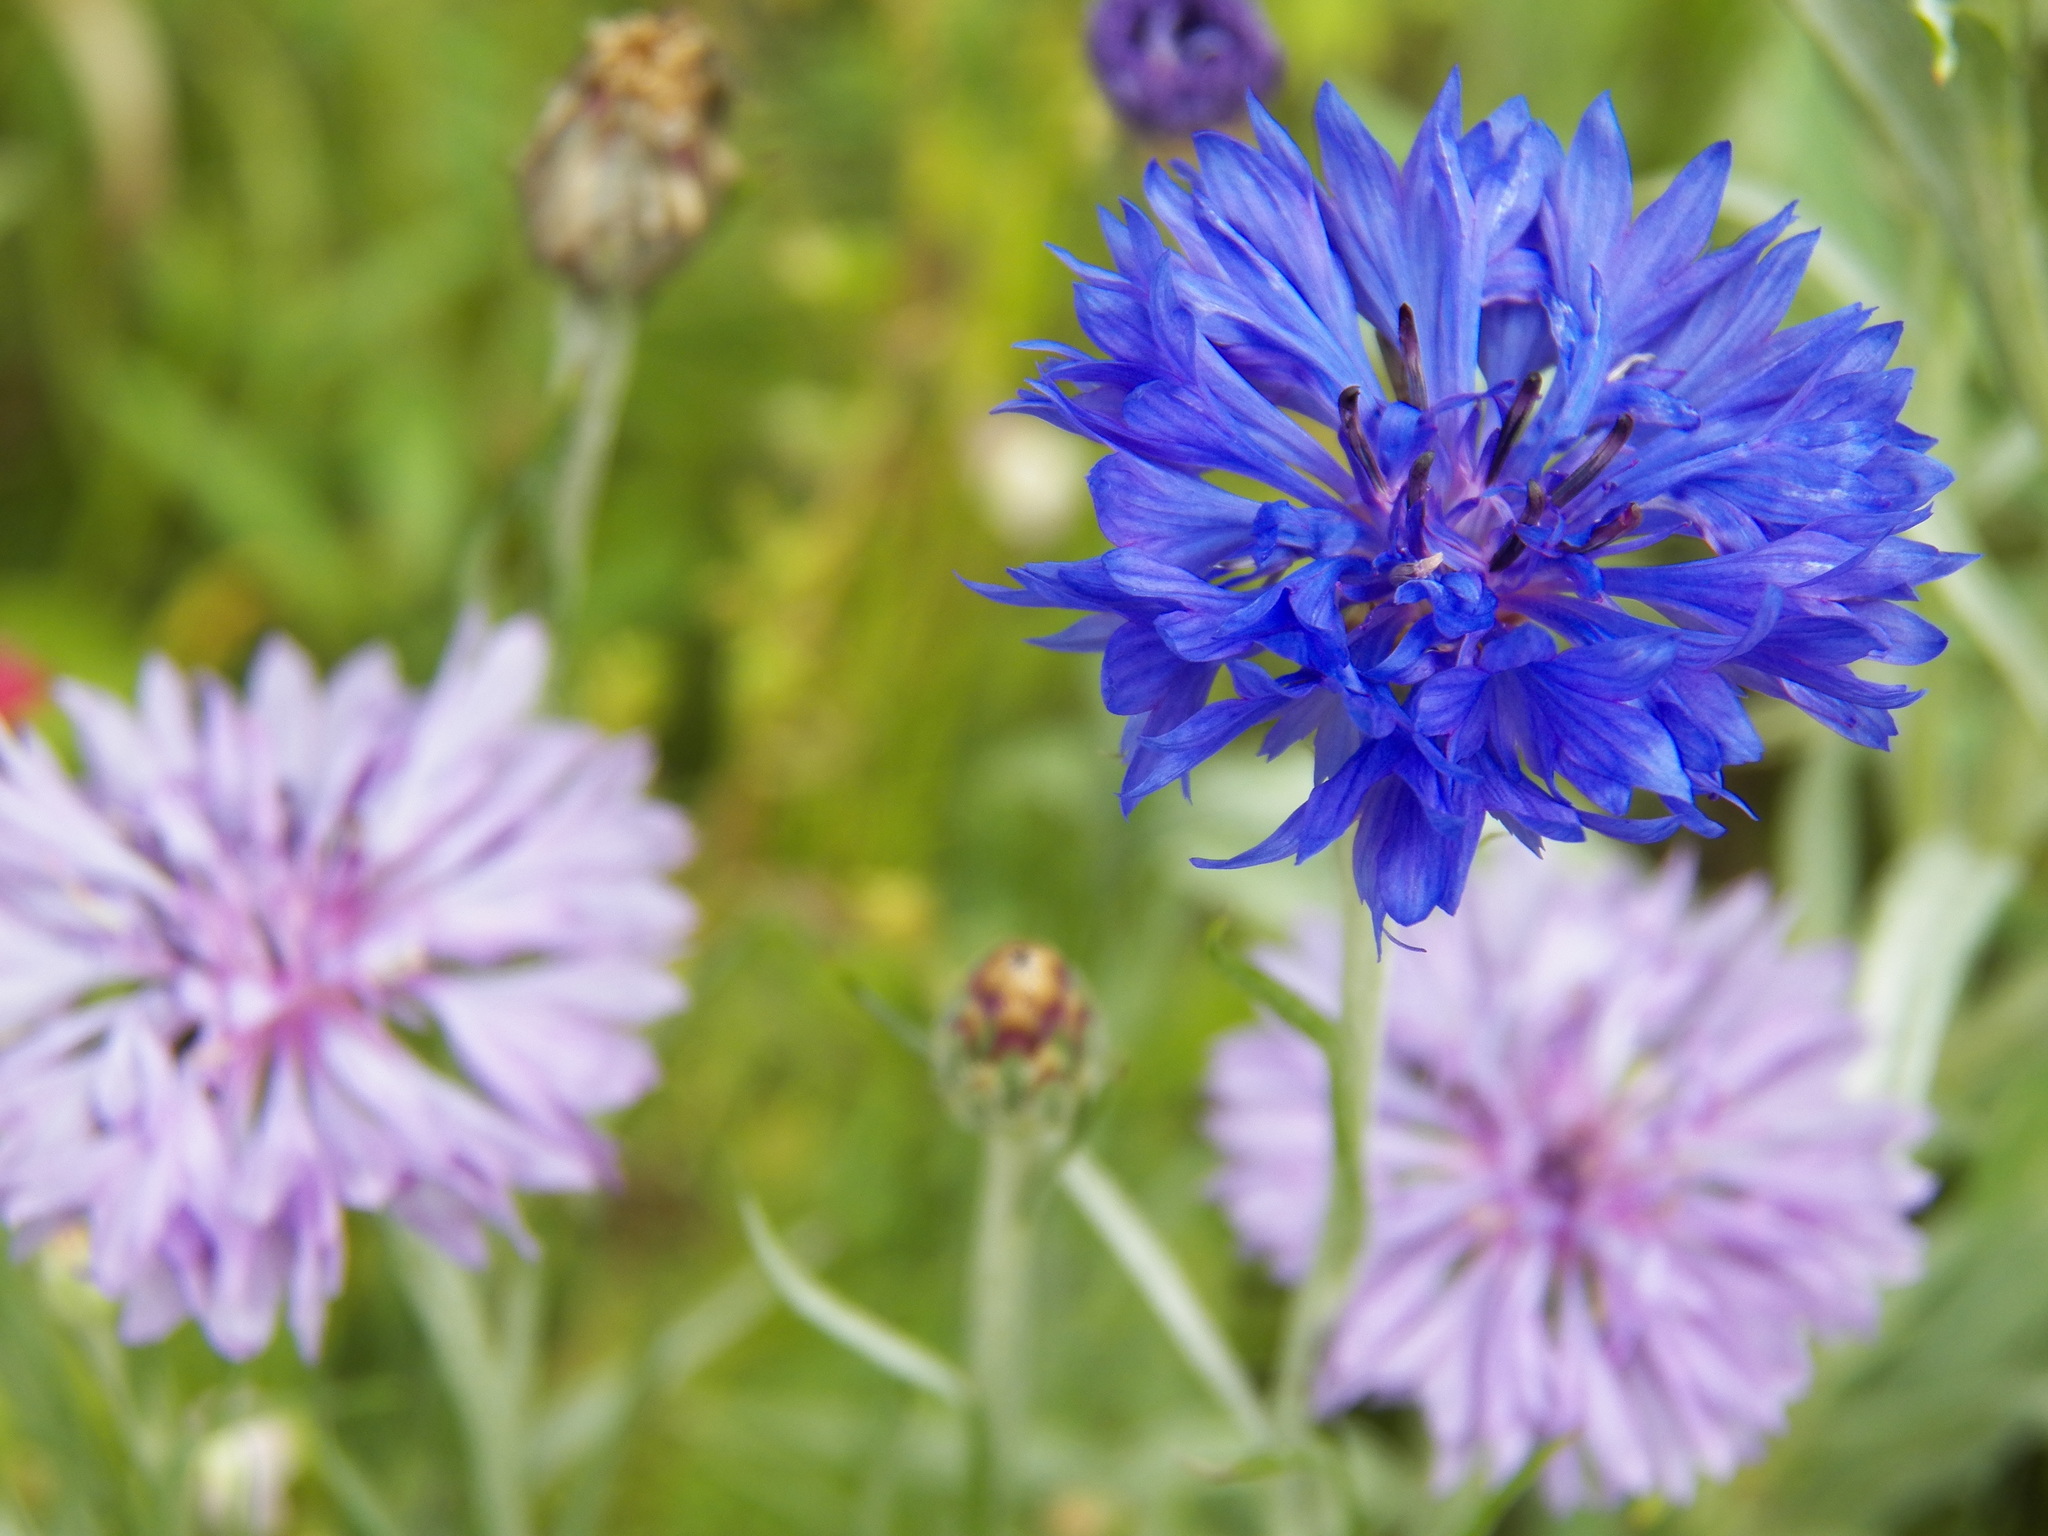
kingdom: Plantae
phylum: Tracheophyta
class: Magnoliopsida
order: Asterales
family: Asteraceae
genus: Centaurea
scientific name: Centaurea cyanus
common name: Cornflower
